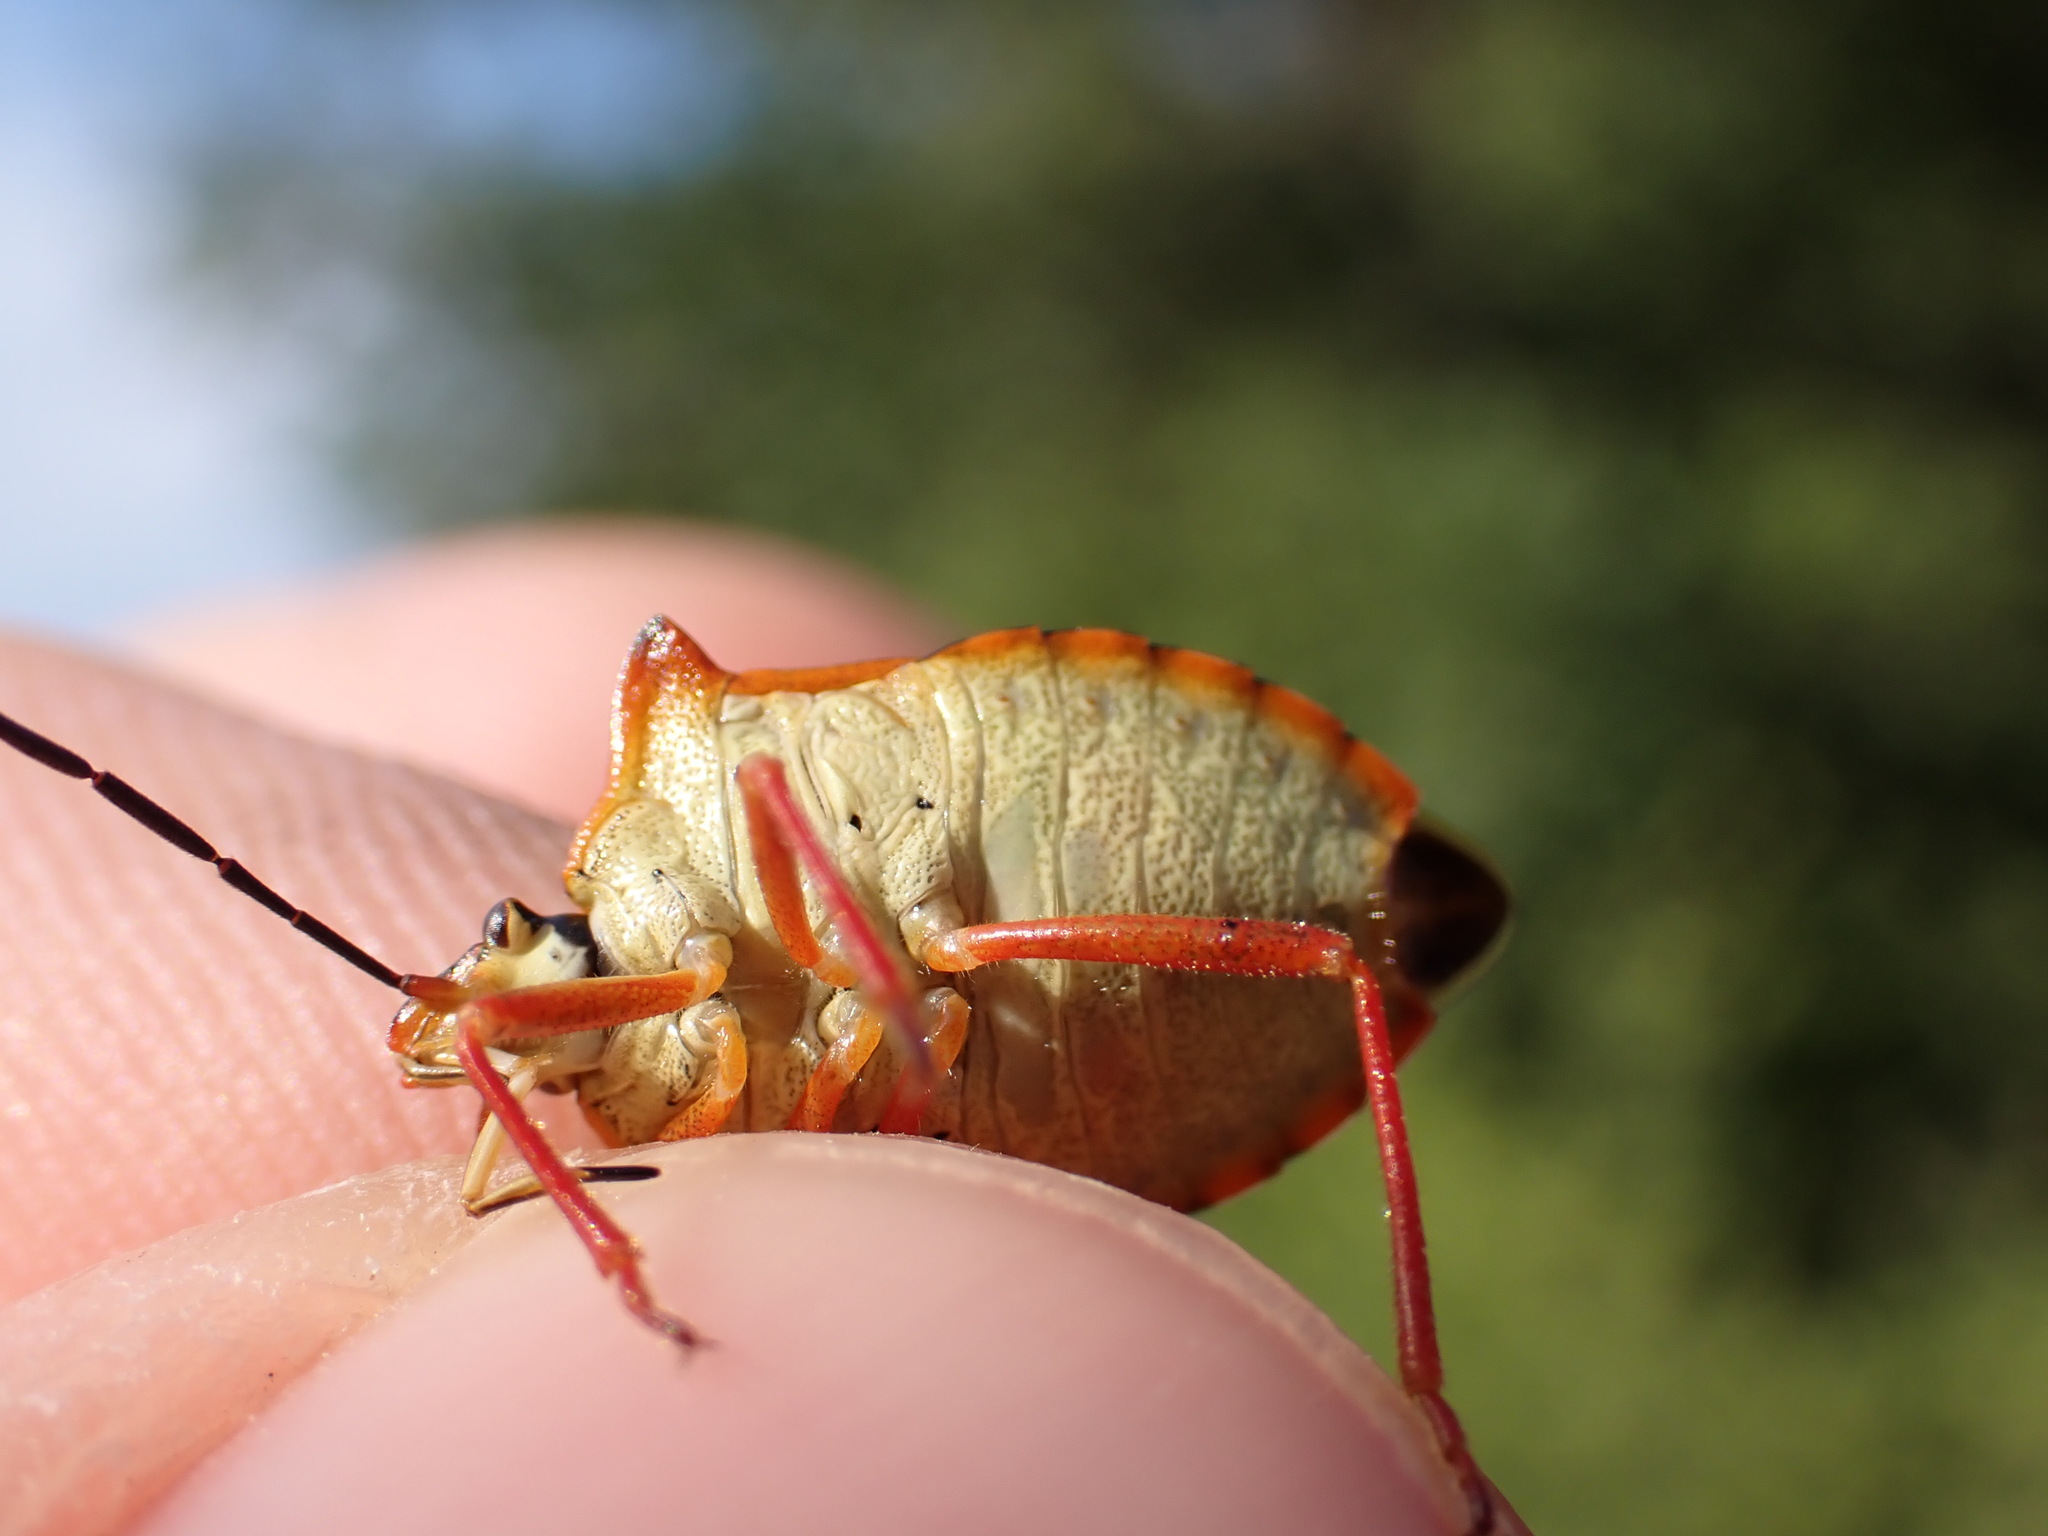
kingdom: Animalia
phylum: Arthropoda
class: Insecta
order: Hemiptera
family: Pentatomidae
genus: Carpocoris
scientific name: Carpocoris mediterraneus
